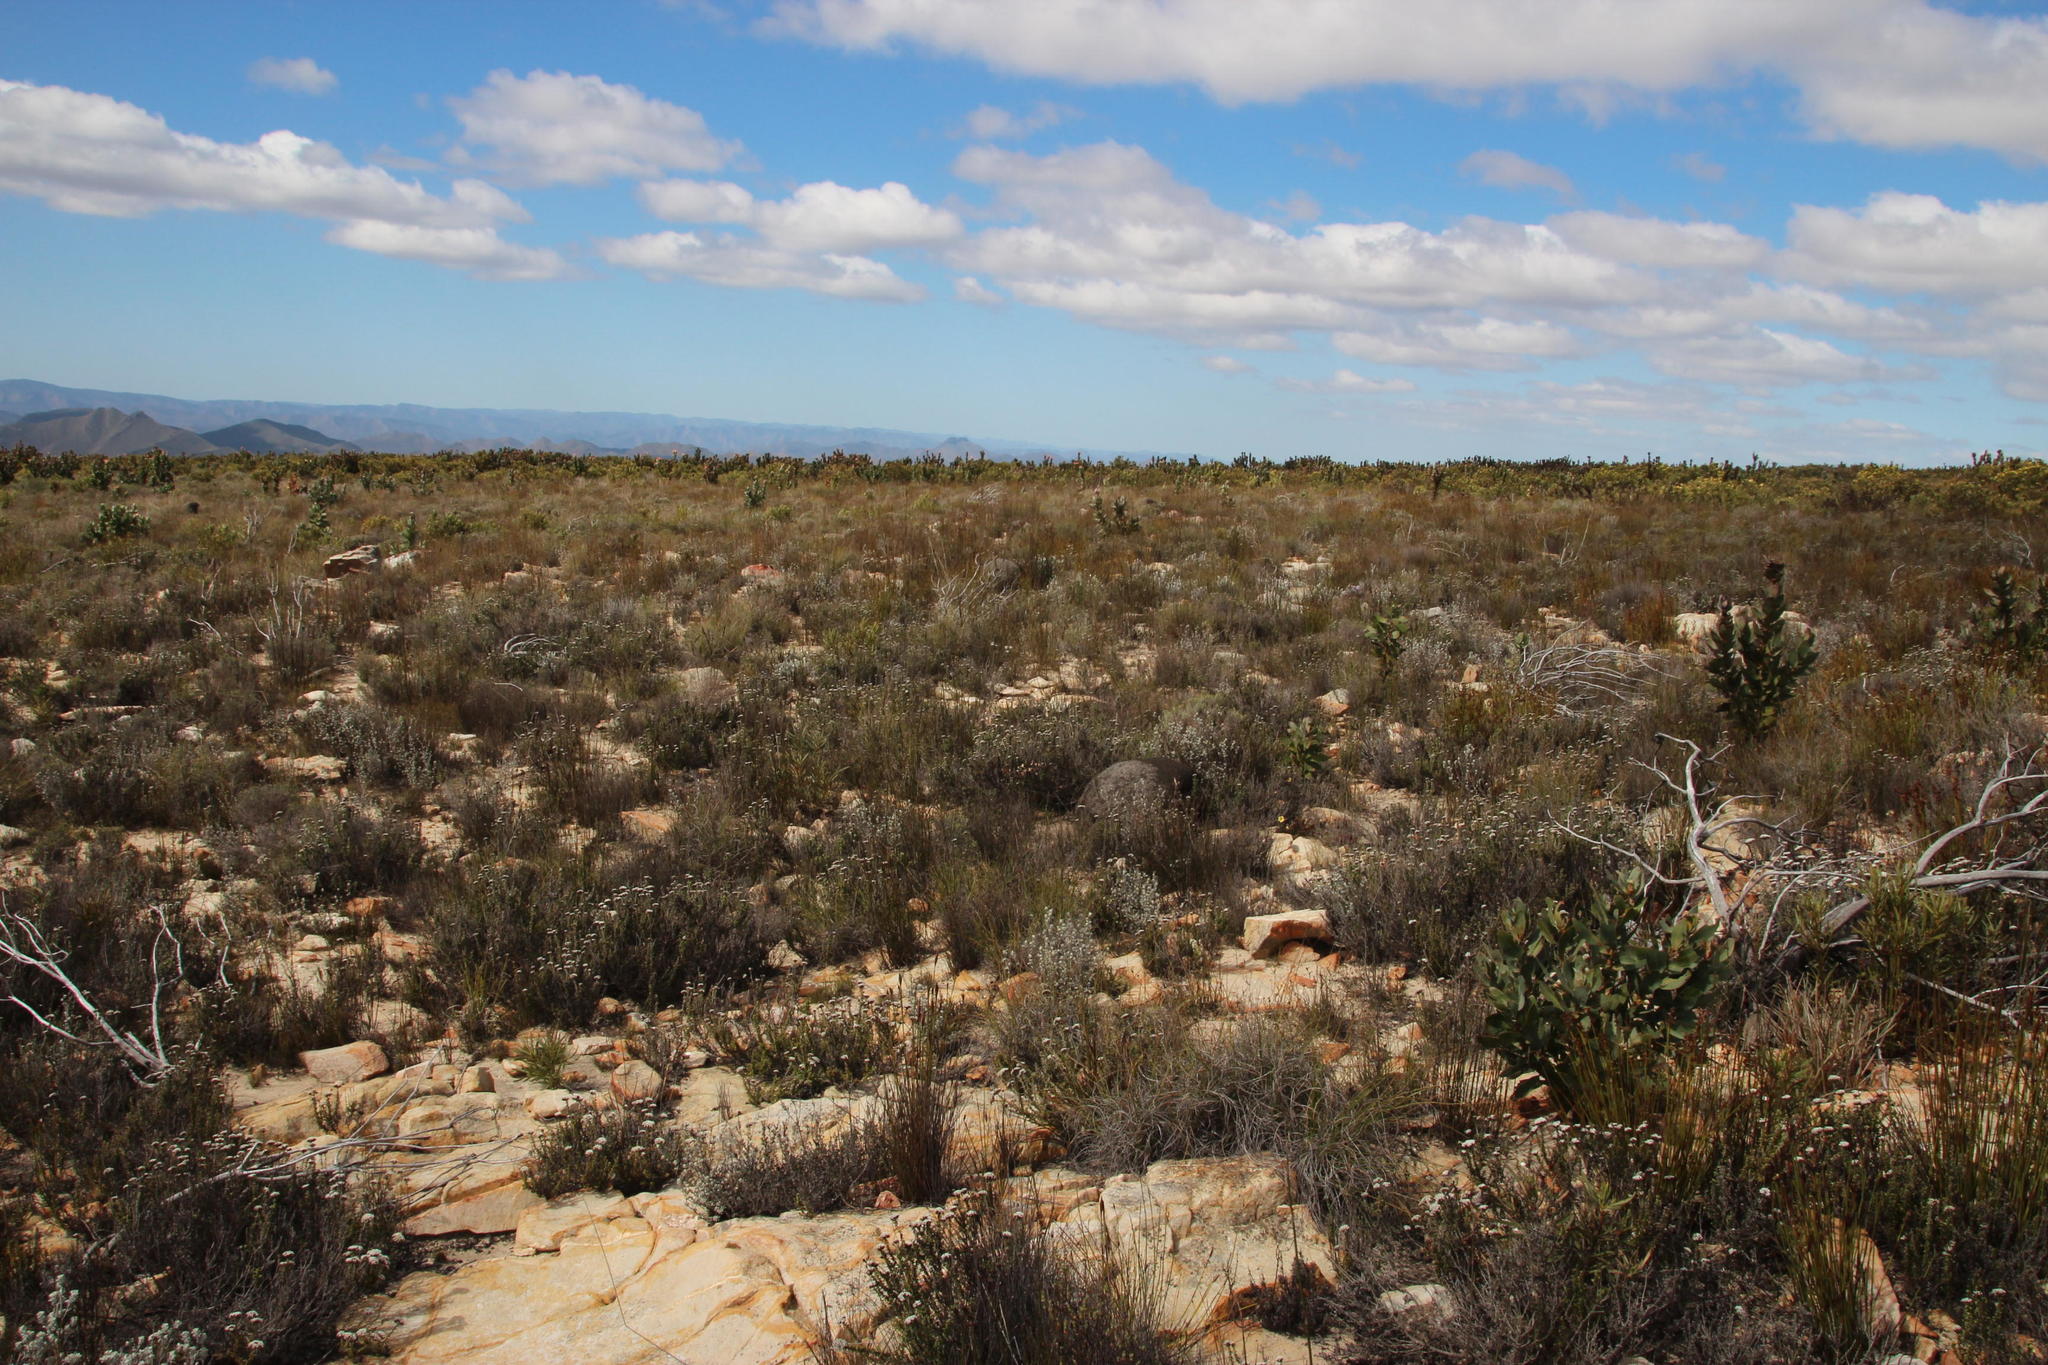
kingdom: Plantae
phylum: Tracheophyta
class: Magnoliopsida
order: Asterales
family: Asteraceae
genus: Metalasia
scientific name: Metalasia densa
